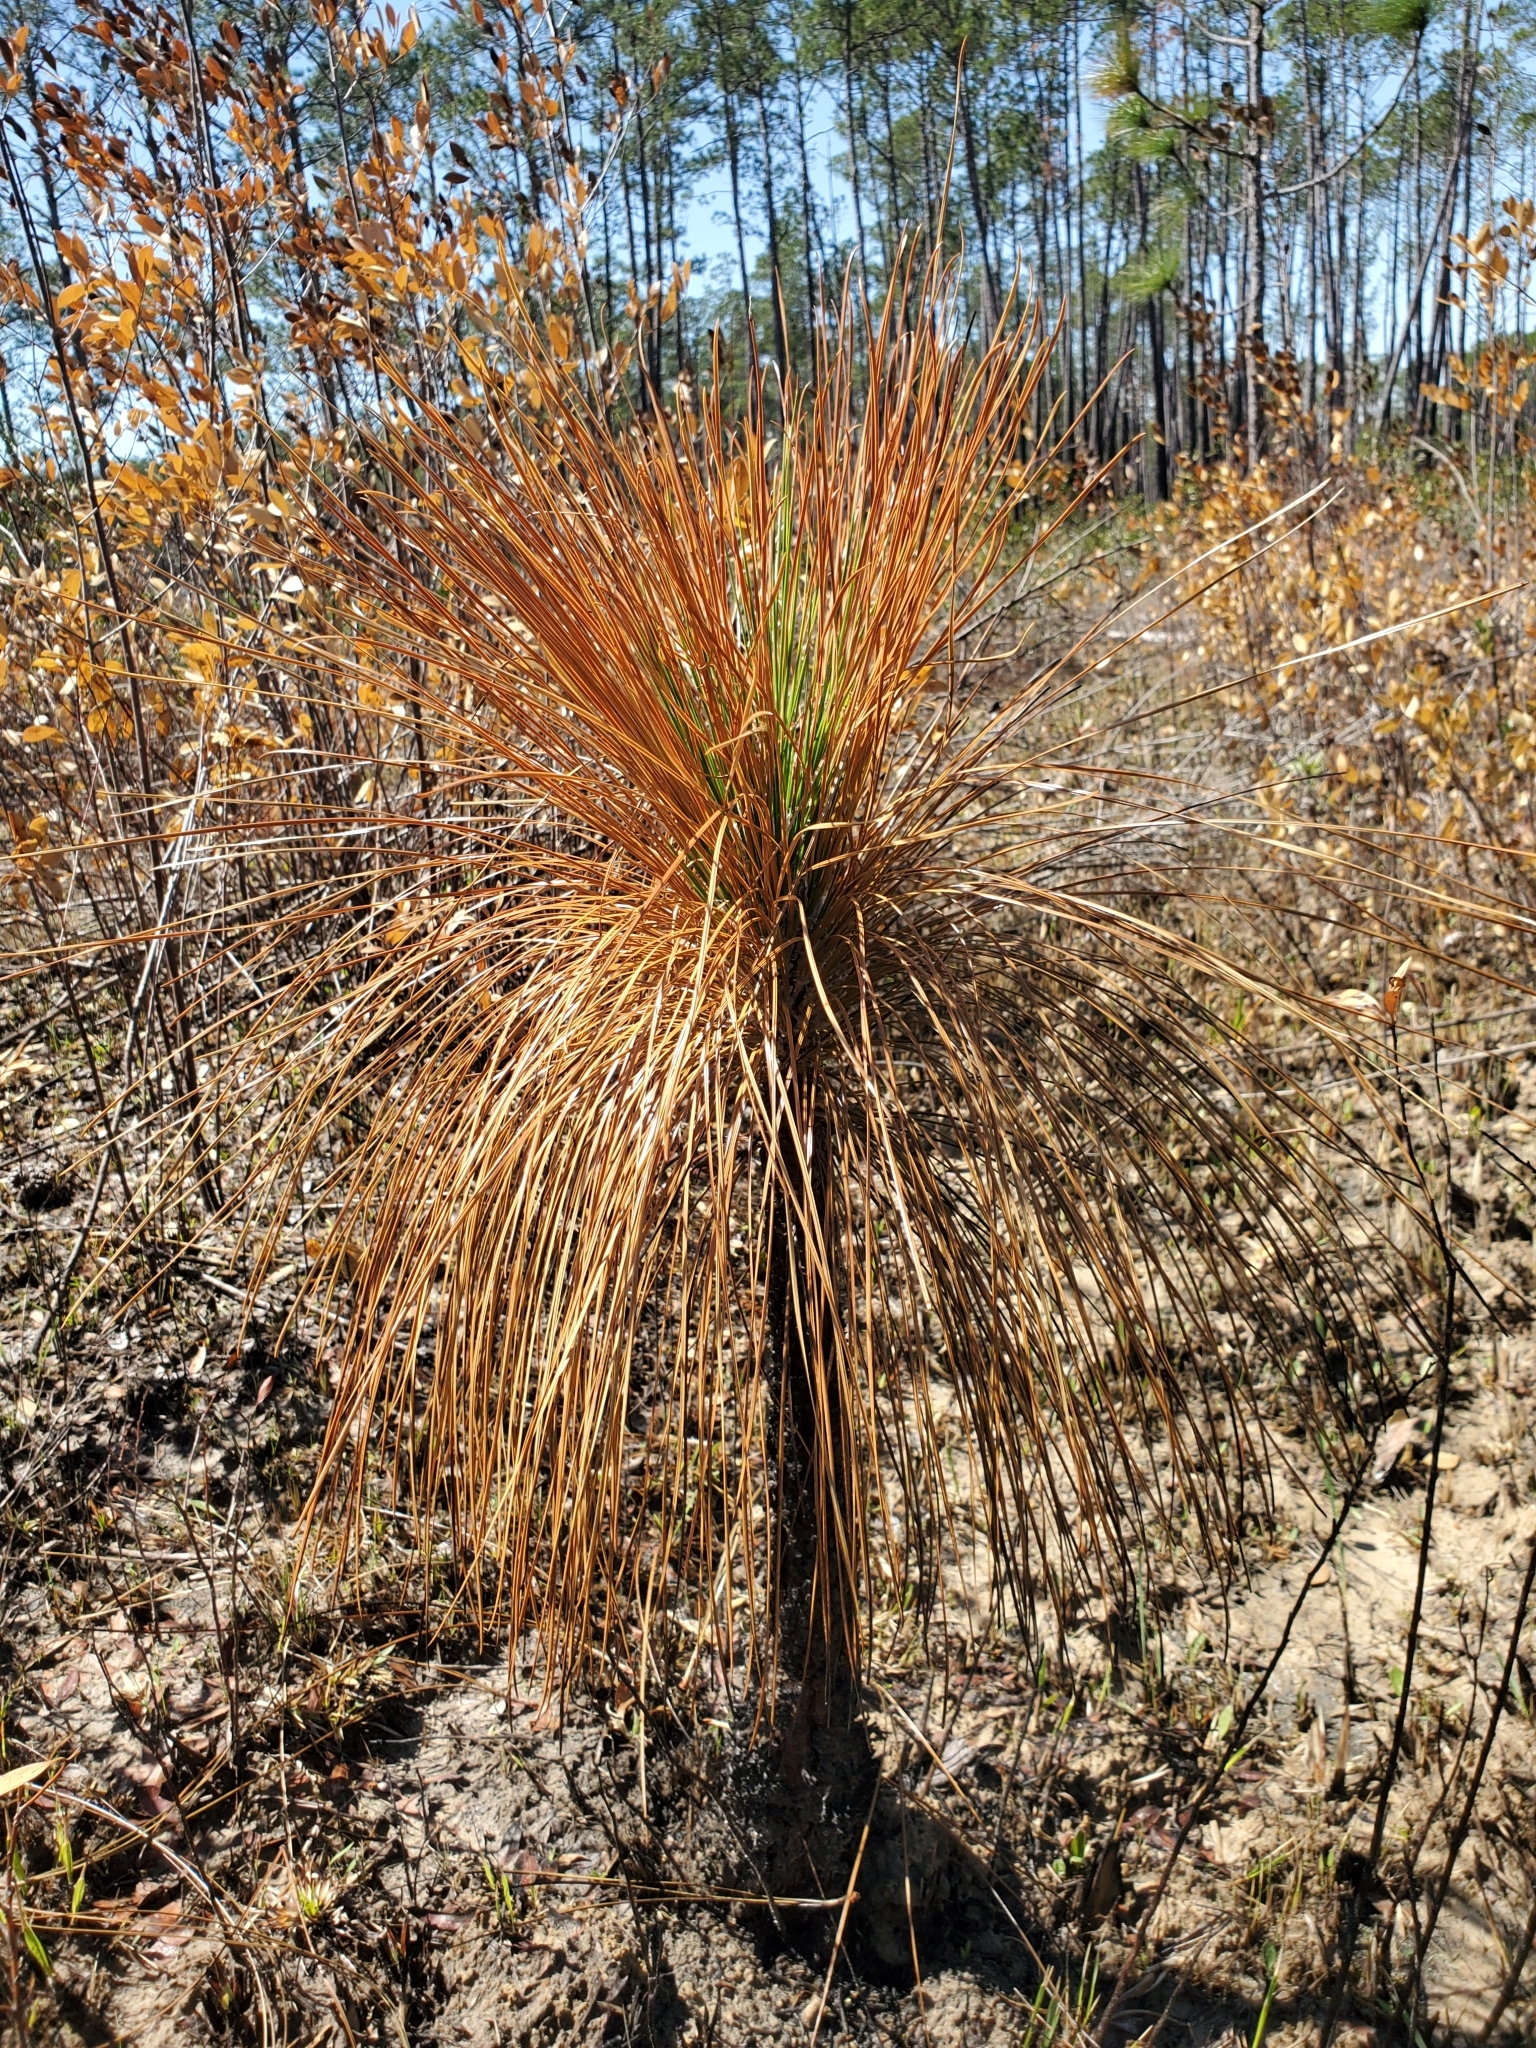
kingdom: Plantae
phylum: Tracheophyta
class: Pinopsida
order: Pinales
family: Pinaceae
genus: Pinus
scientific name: Pinus palustris
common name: Longleaf pine
